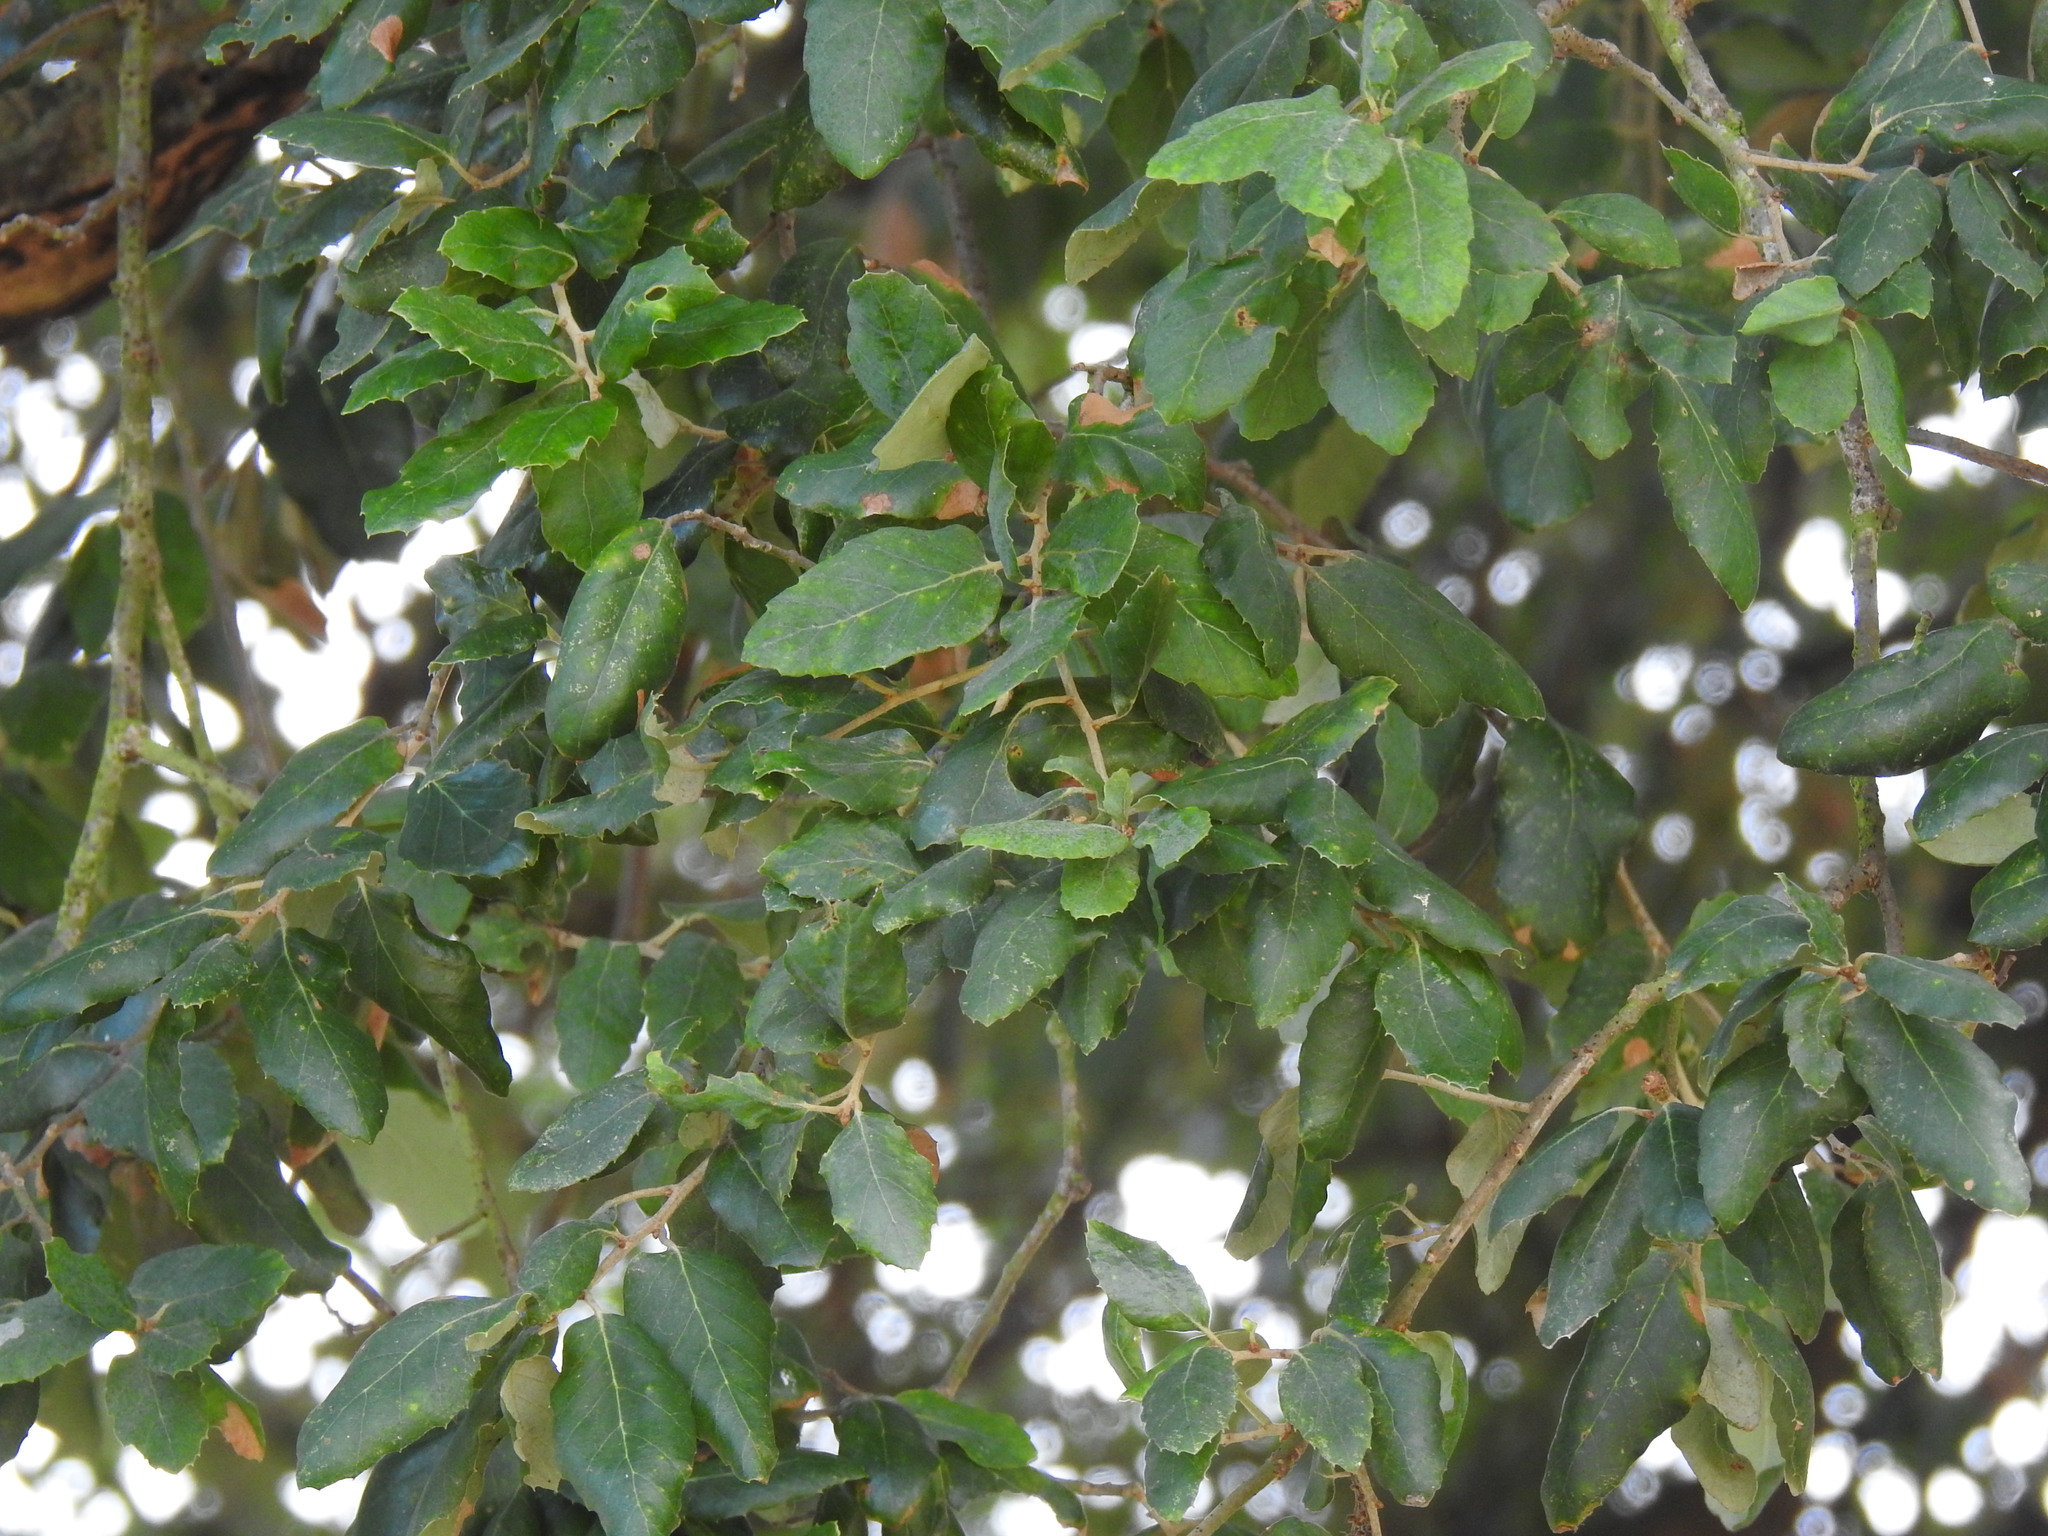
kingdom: Plantae
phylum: Tracheophyta
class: Magnoliopsida
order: Fagales
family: Fagaceae
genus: Quercus
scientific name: Quercus suber
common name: Cork oak
